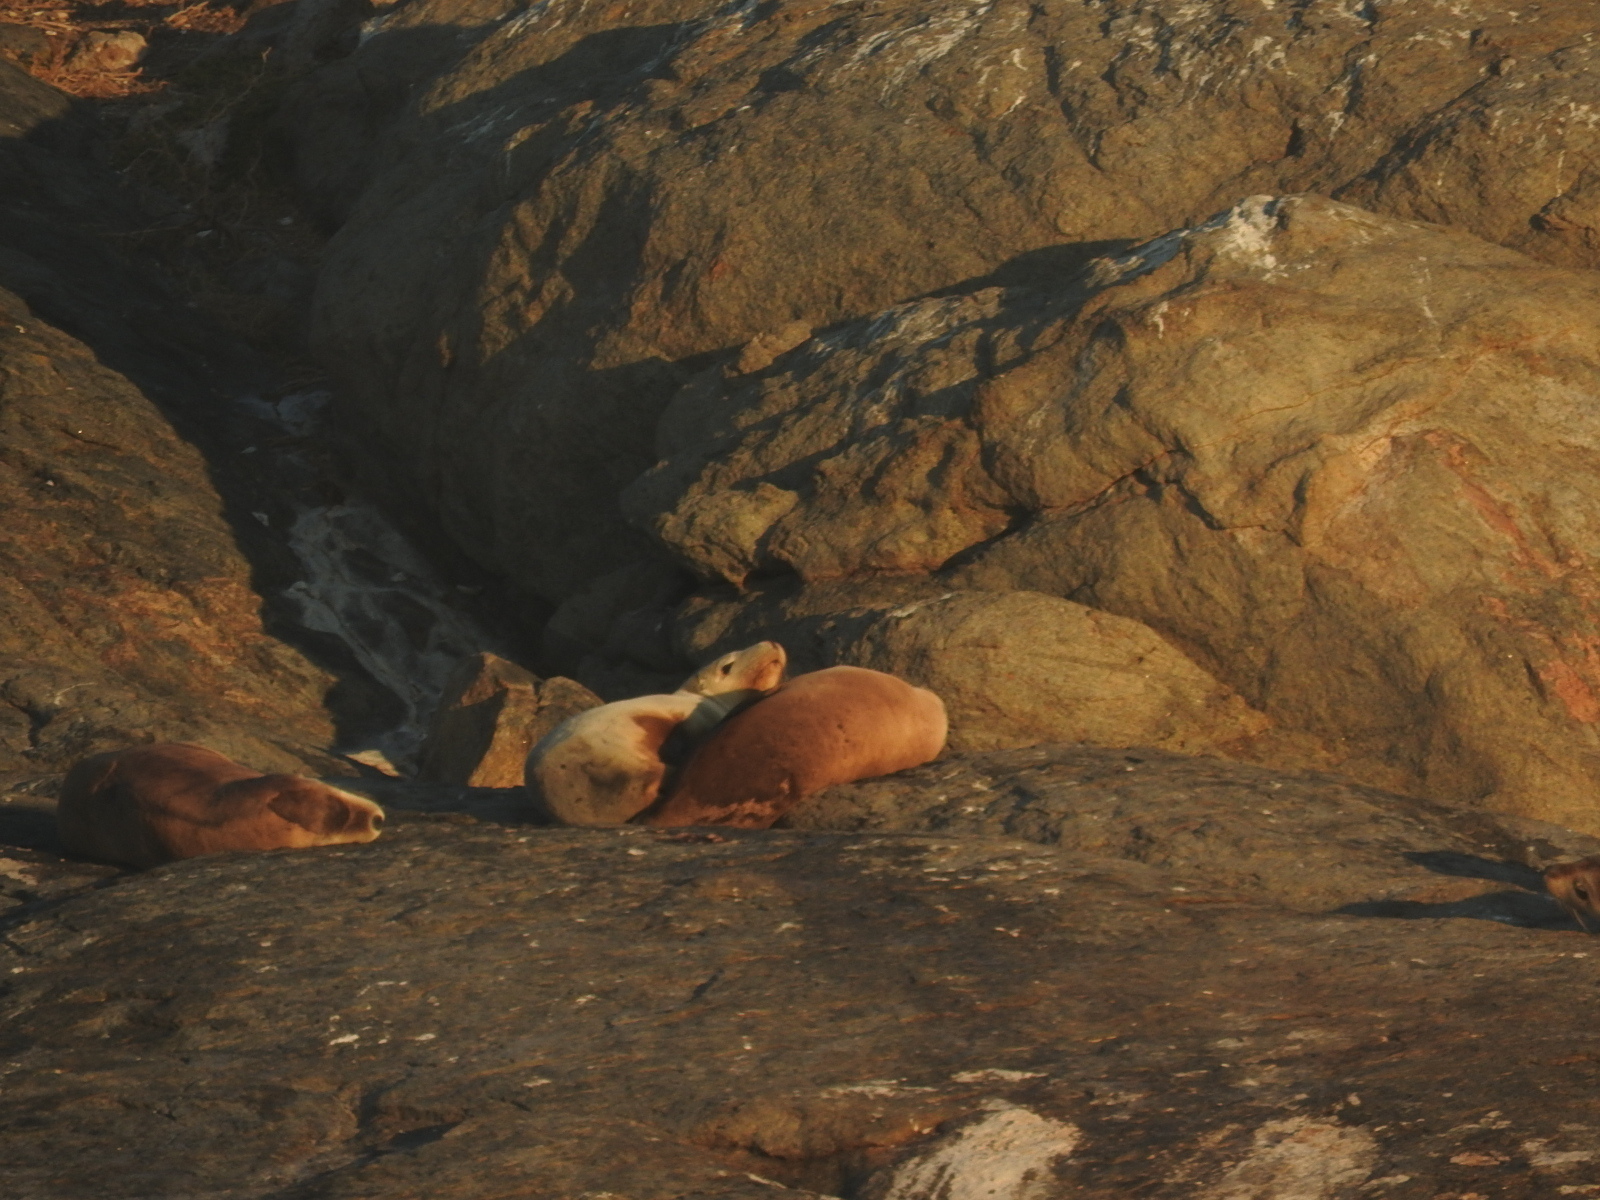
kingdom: Animalia
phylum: Chordata
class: Mammalia
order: Carnivora
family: Otariidae
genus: Neophoca
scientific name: Neophoca cinerea
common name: Australian sea lion
